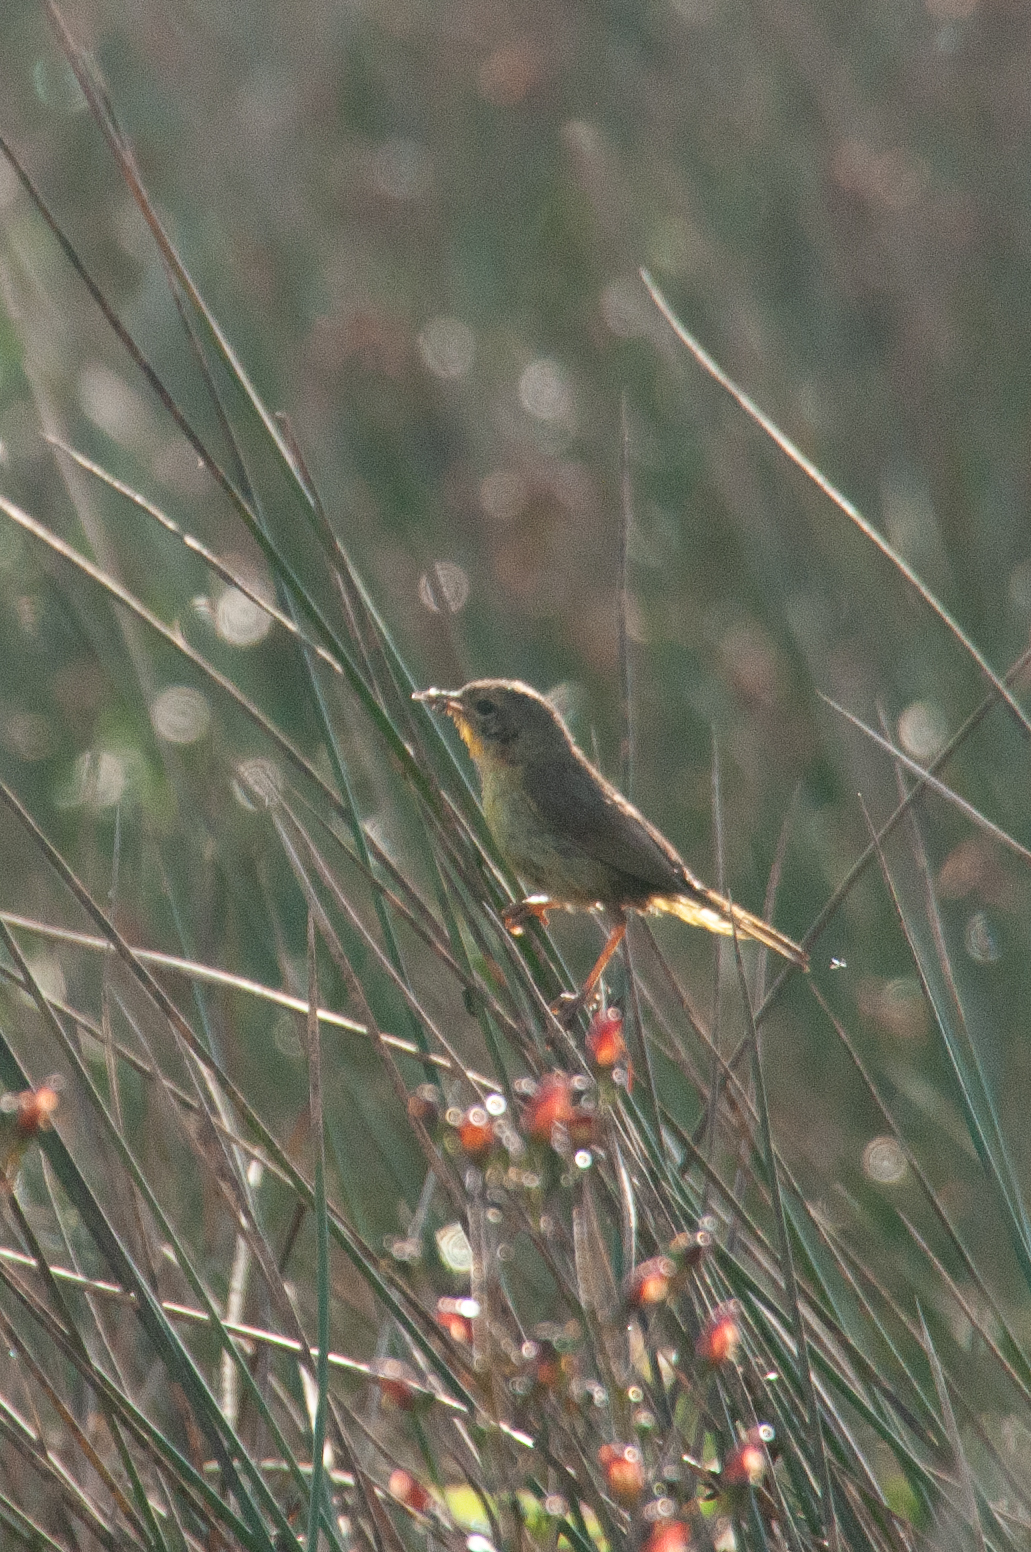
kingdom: Animalia
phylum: Chordata
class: Aves
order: Passeriformes
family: Parulidae
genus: Geothlypis
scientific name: Geothlypis trichas
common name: Common yellowthroat
